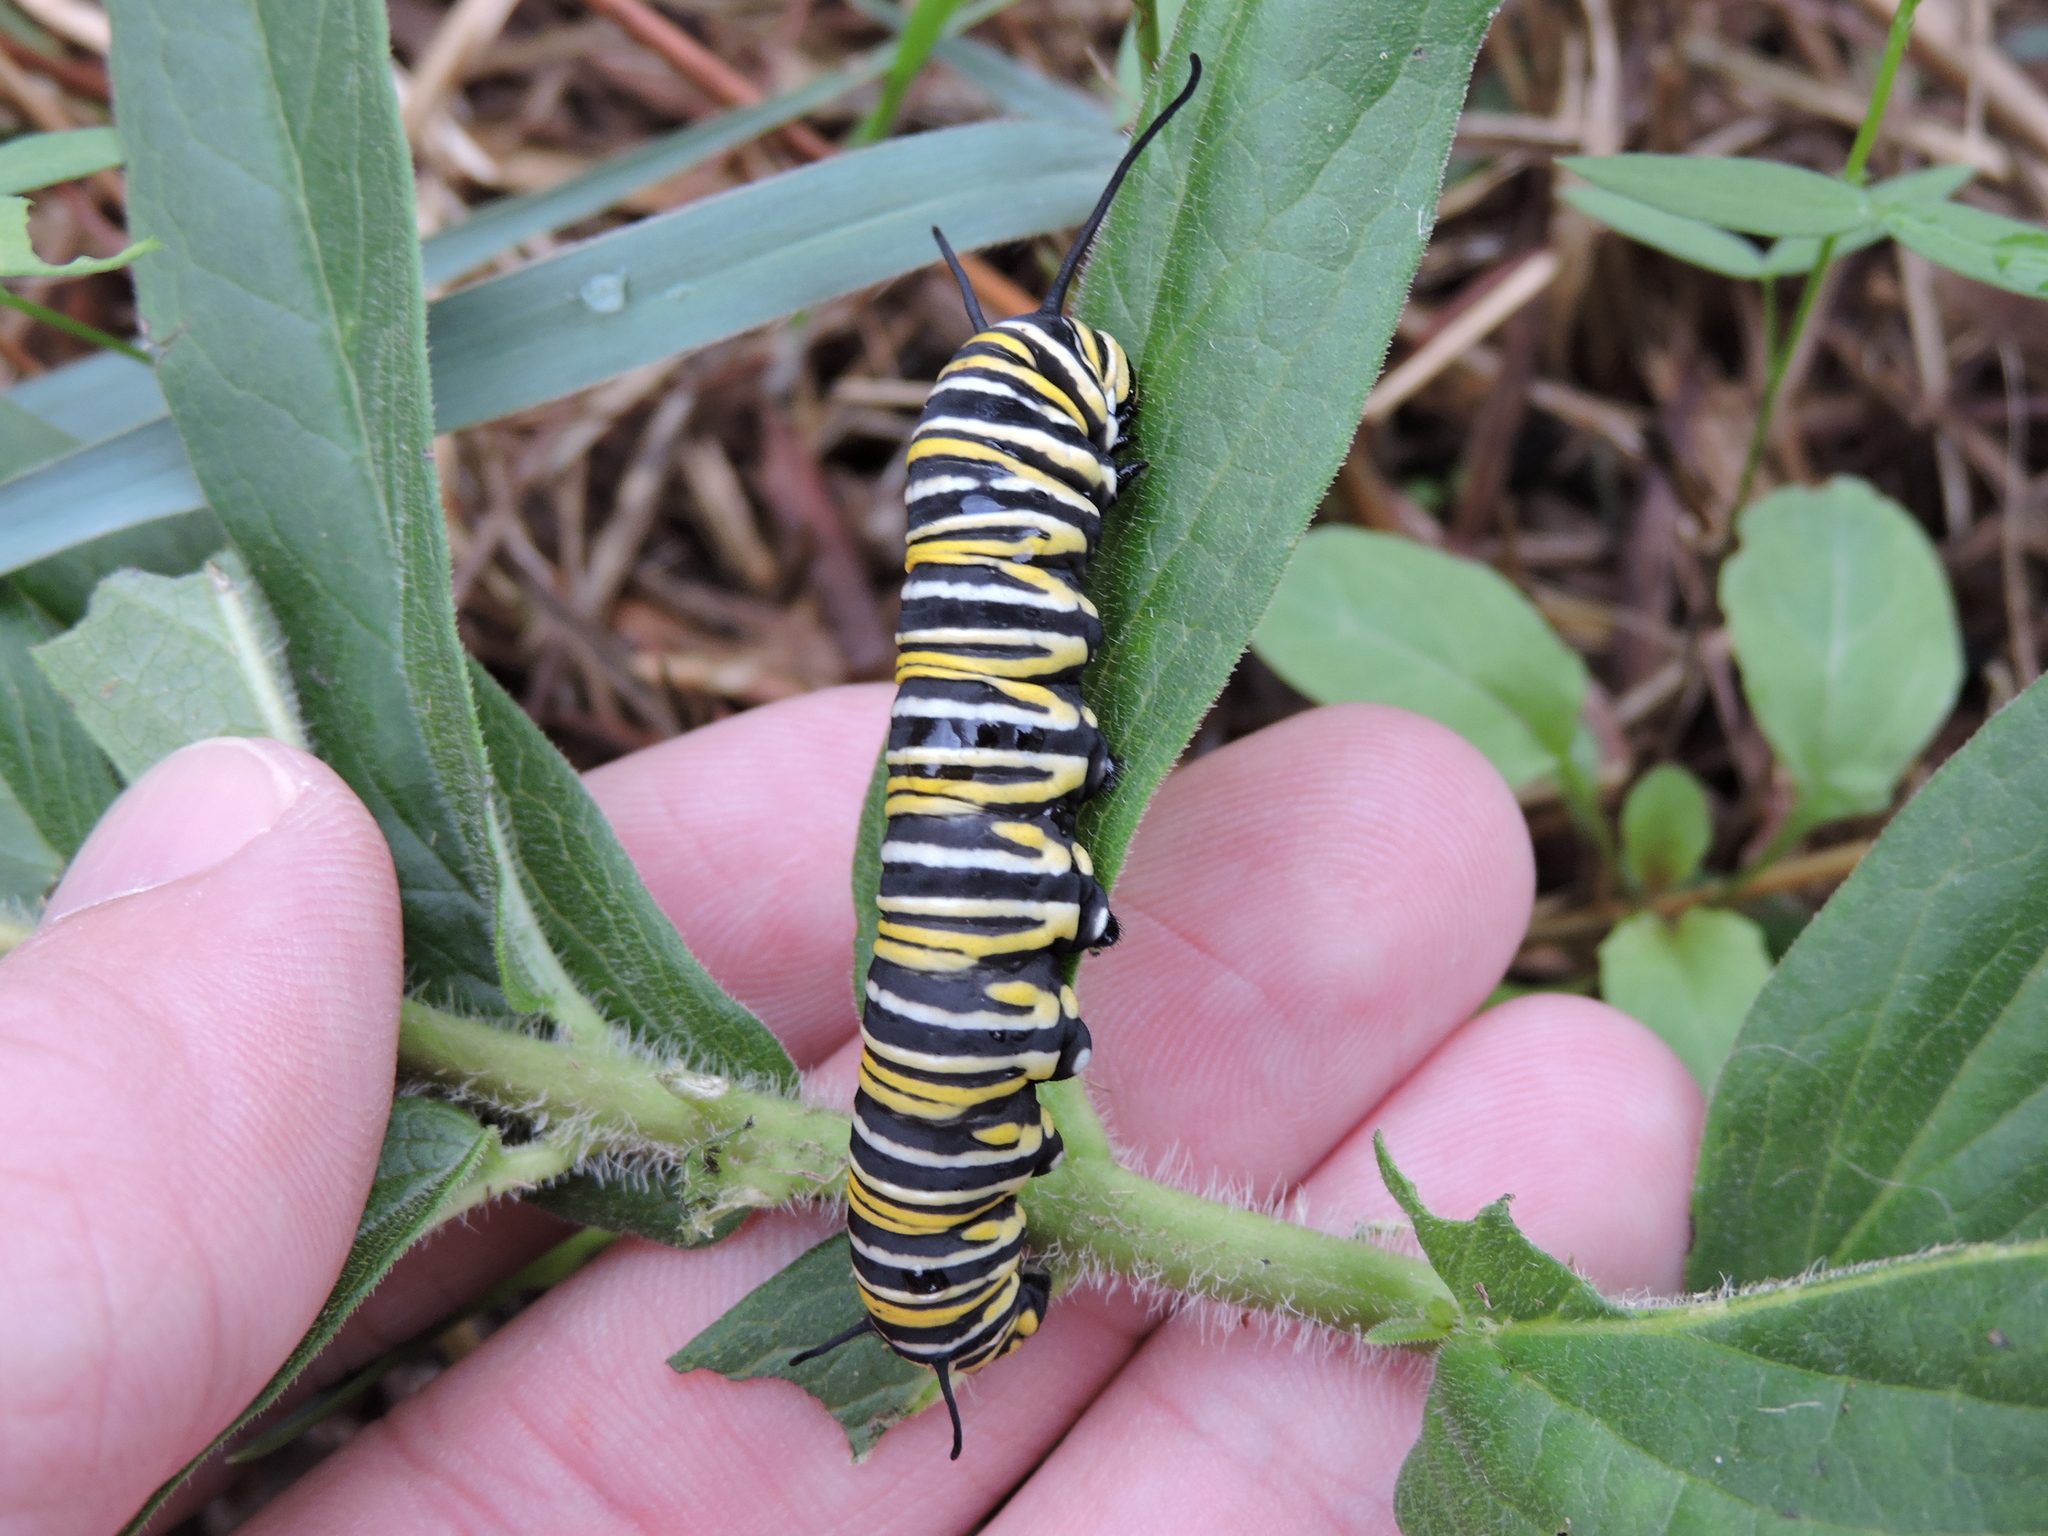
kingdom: Animalia
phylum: Arthropoda
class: Insecta
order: Lepidoptera
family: Nymphalidae
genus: Danaus
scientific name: Danaus plexippus
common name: Monarch
